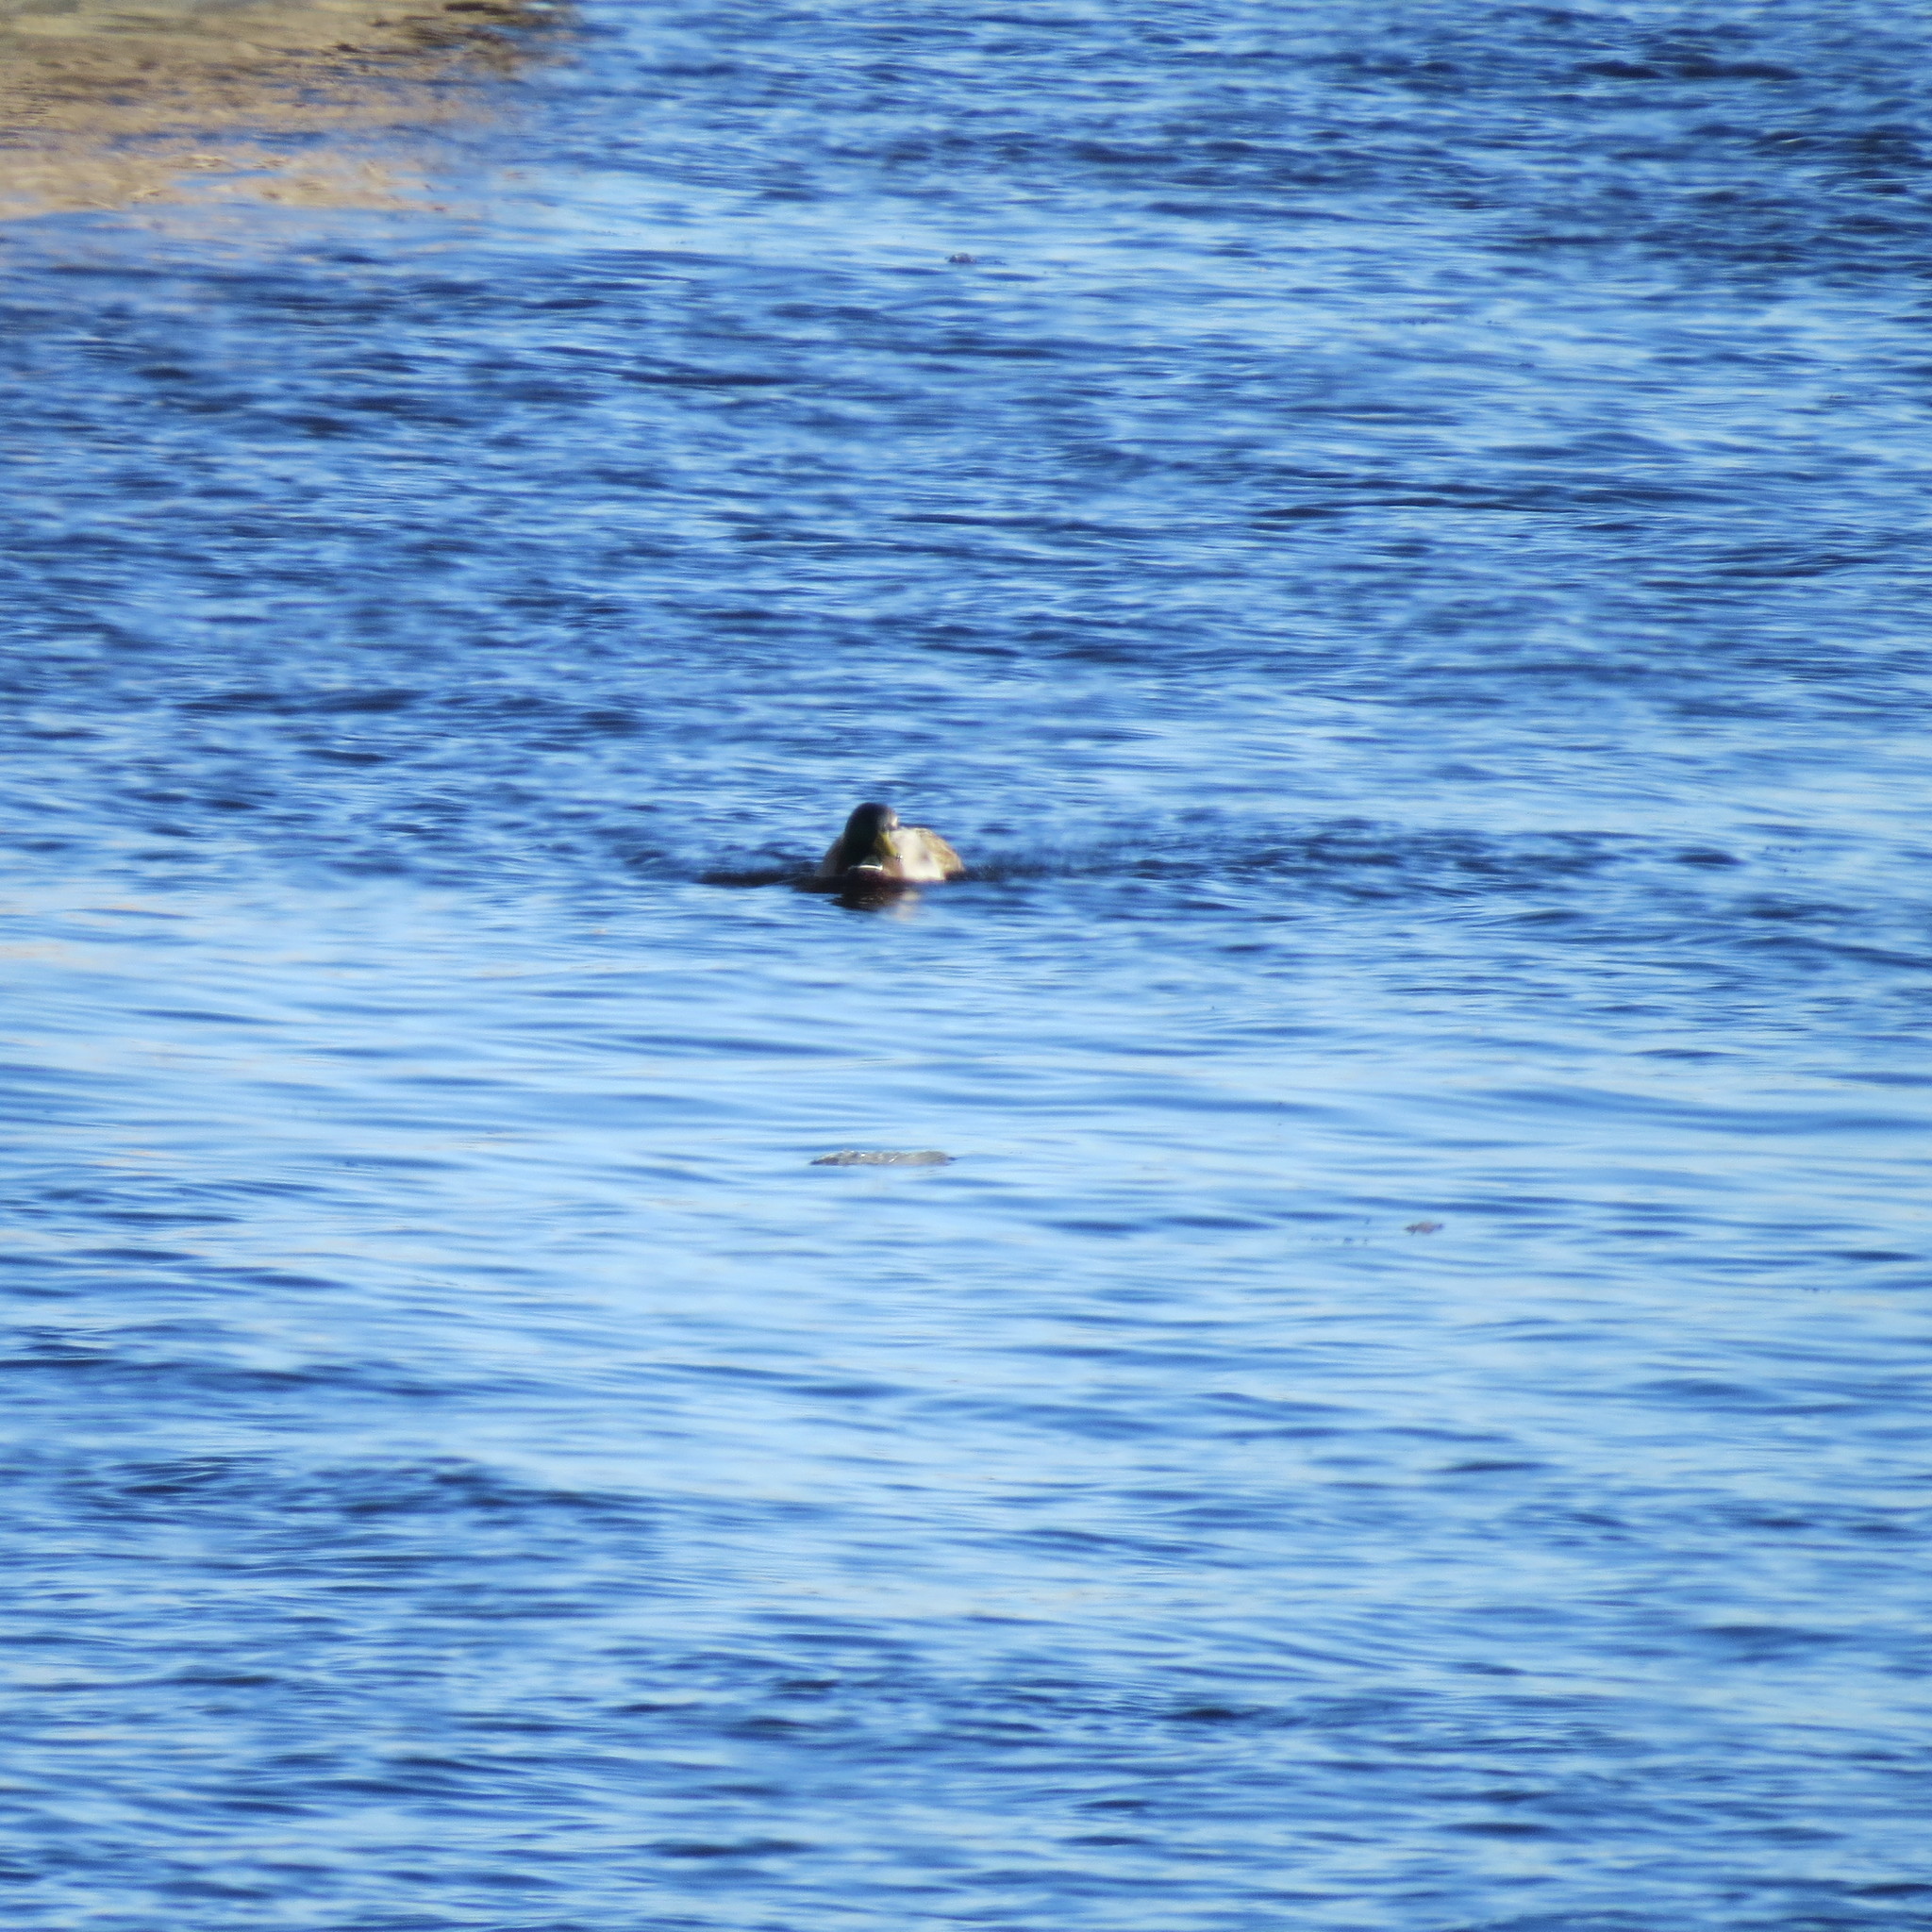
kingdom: Animalia
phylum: Chordata
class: Aves
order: Anseriformes
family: Anatidae
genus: Anas
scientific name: Anas platyrhynchos
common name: Mallard
